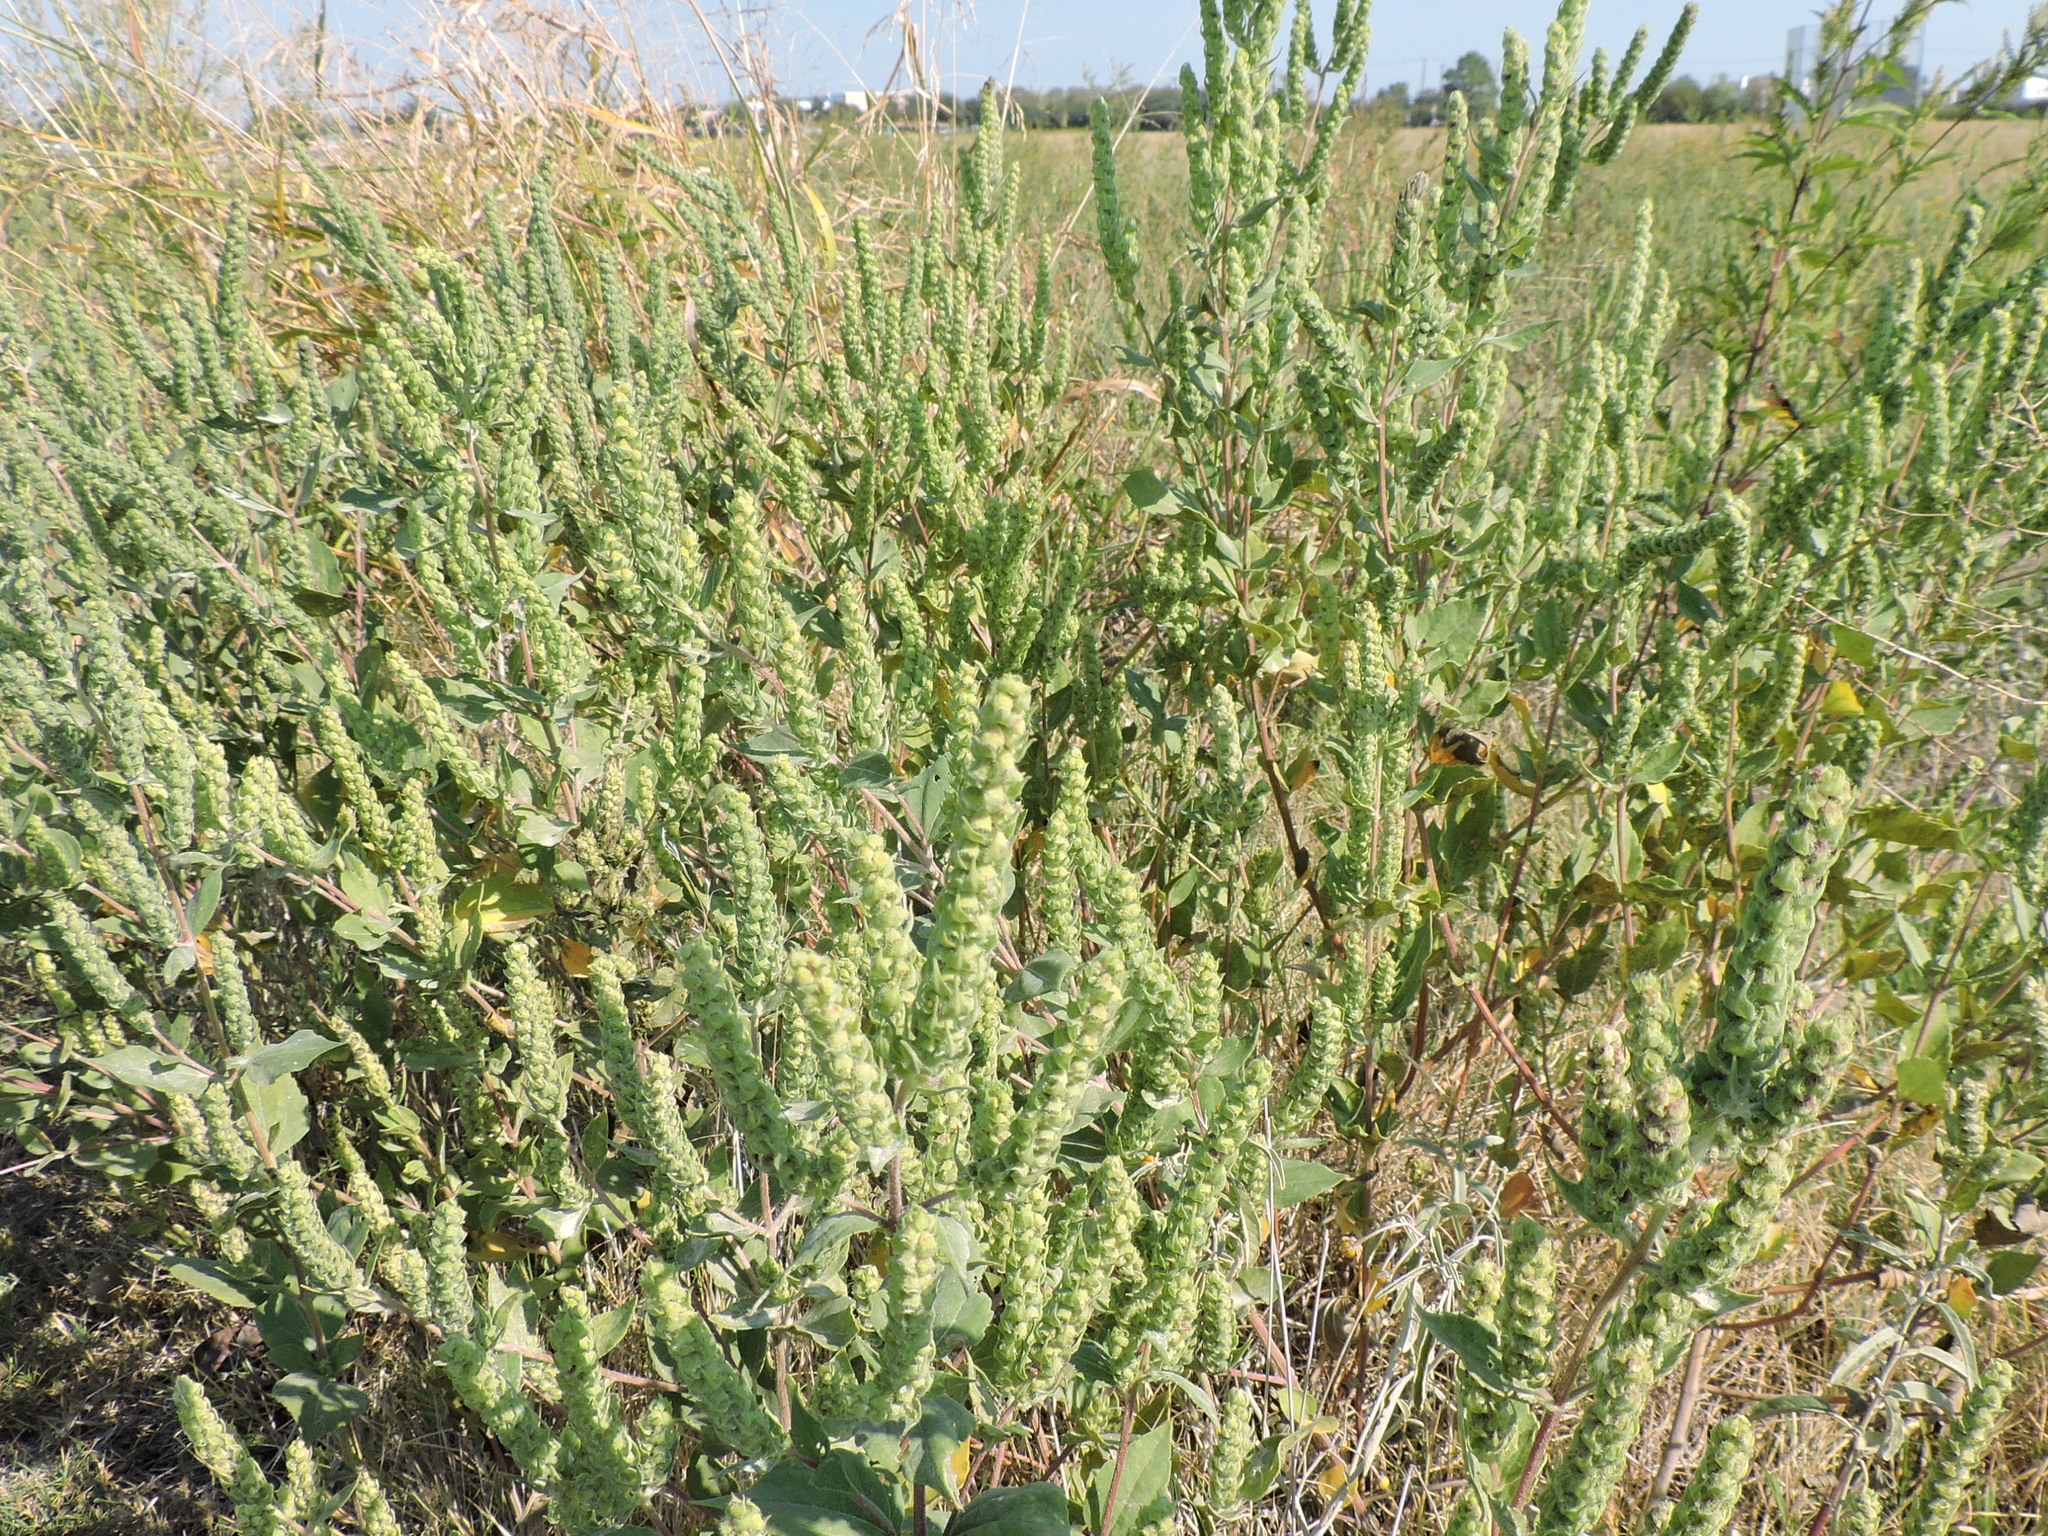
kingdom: Plantae
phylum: Tracheophyta
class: Magnoliopsida
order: Asterales
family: Asteraceae
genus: Iva
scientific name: Iva annua
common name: Marsh-elder
